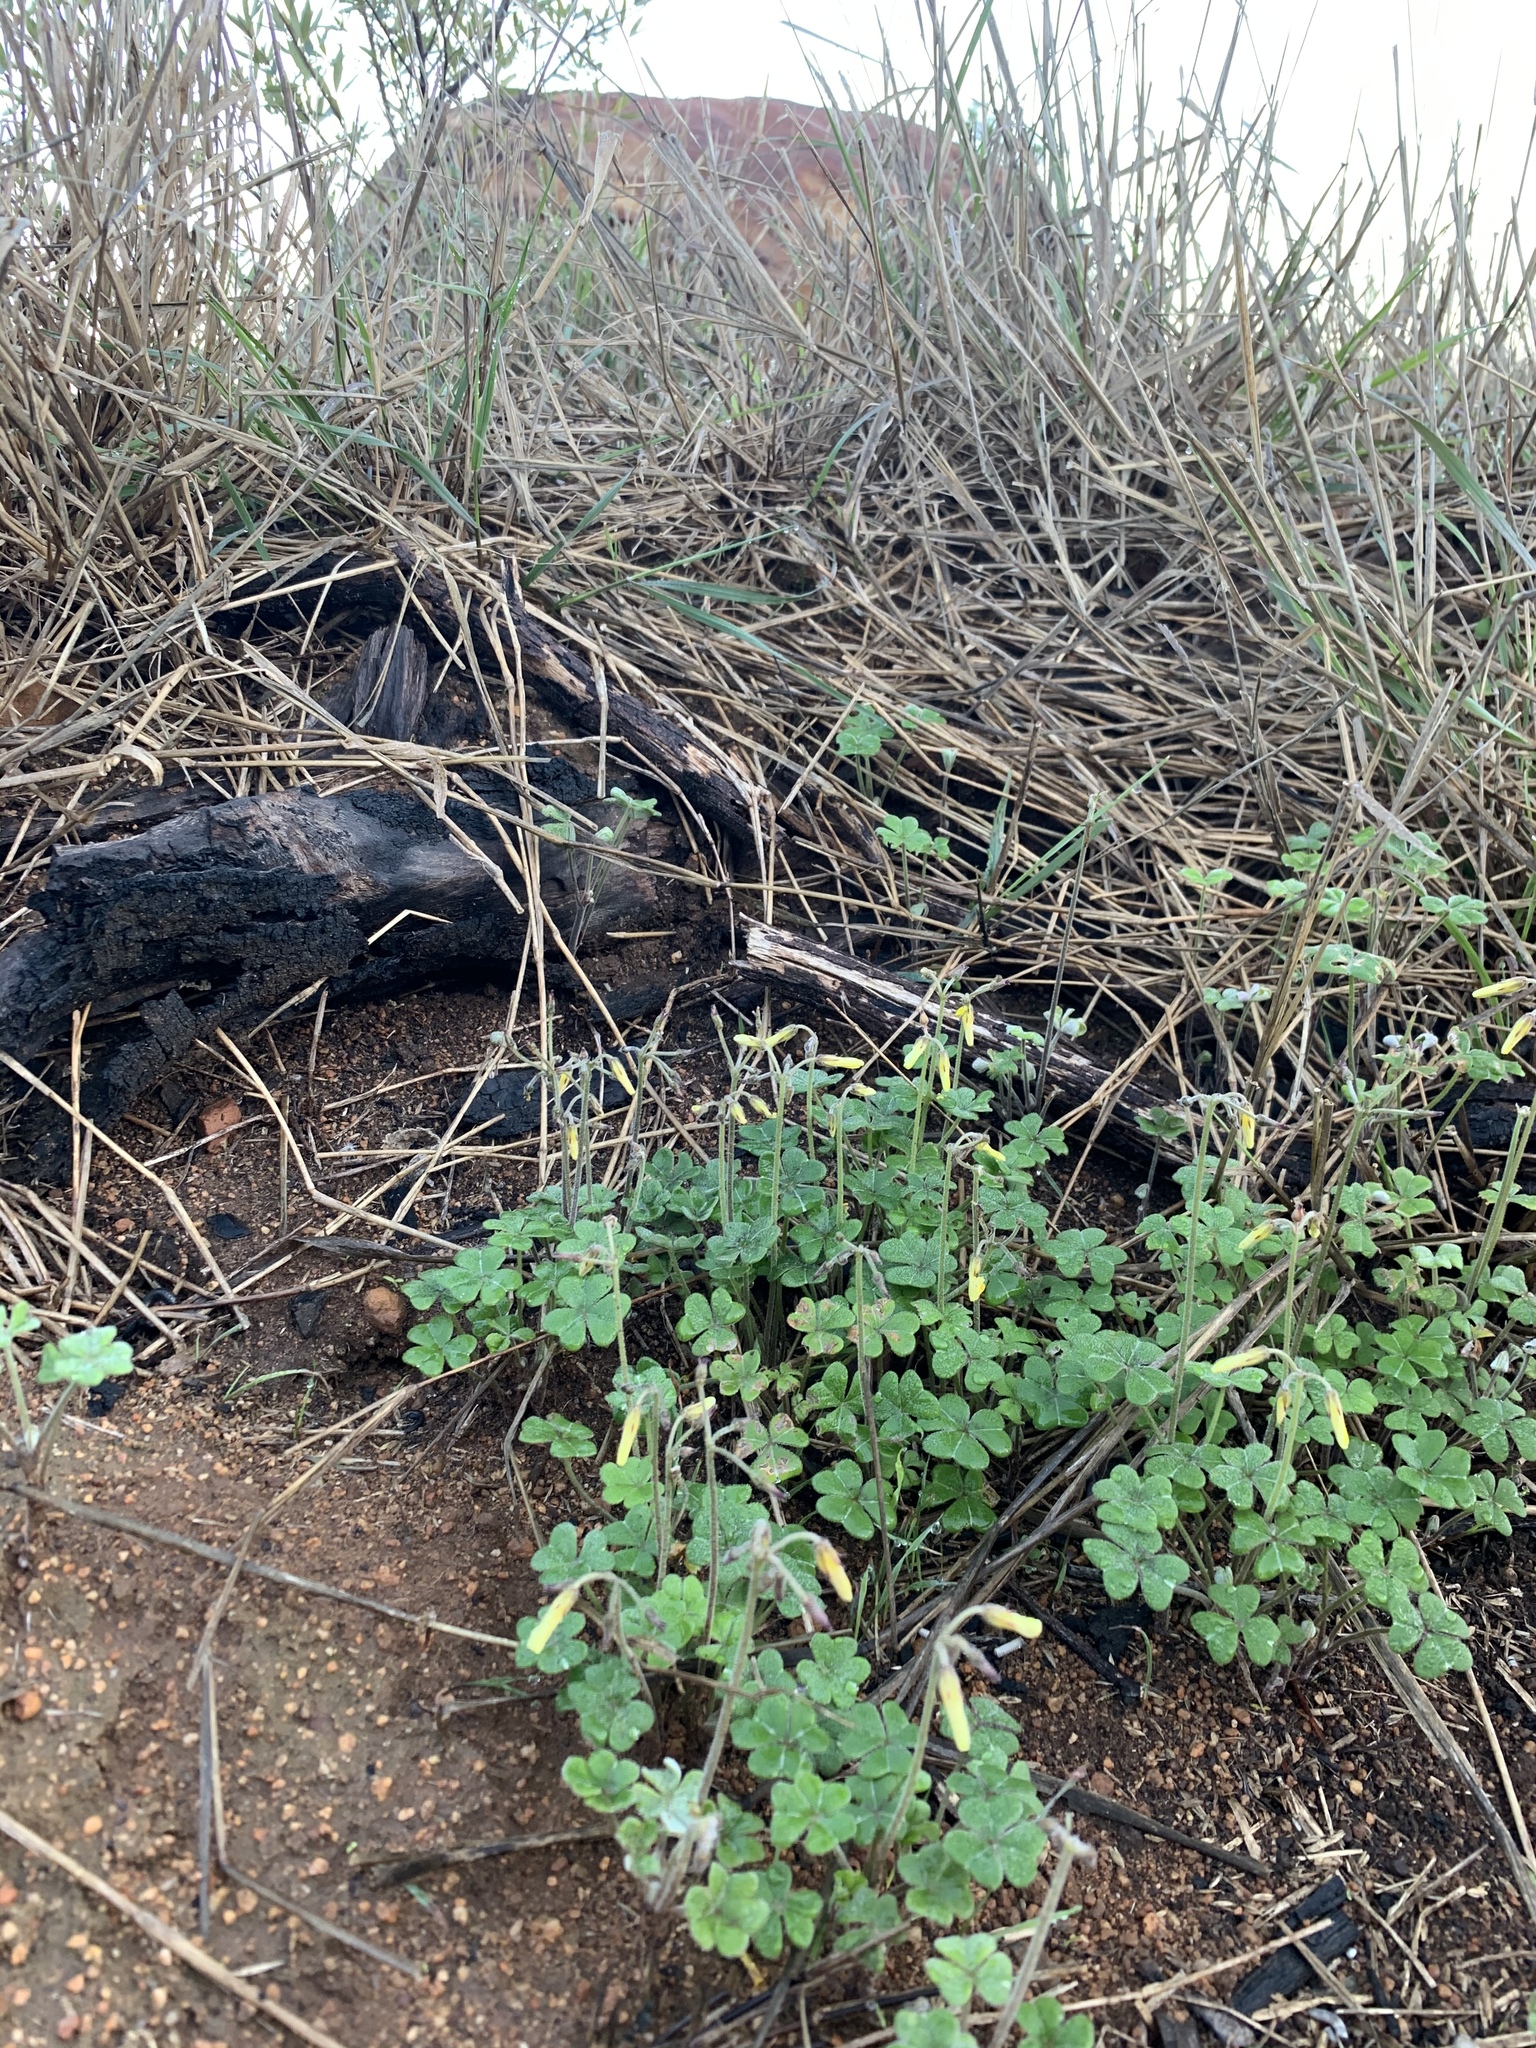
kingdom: Plantae
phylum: Tracheophyta
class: Magnoliopsida
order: Oxalidales
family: Oxalidaceae
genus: Oxalis
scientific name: Oxalis pes-caprae
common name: Bermuda-buttercup
